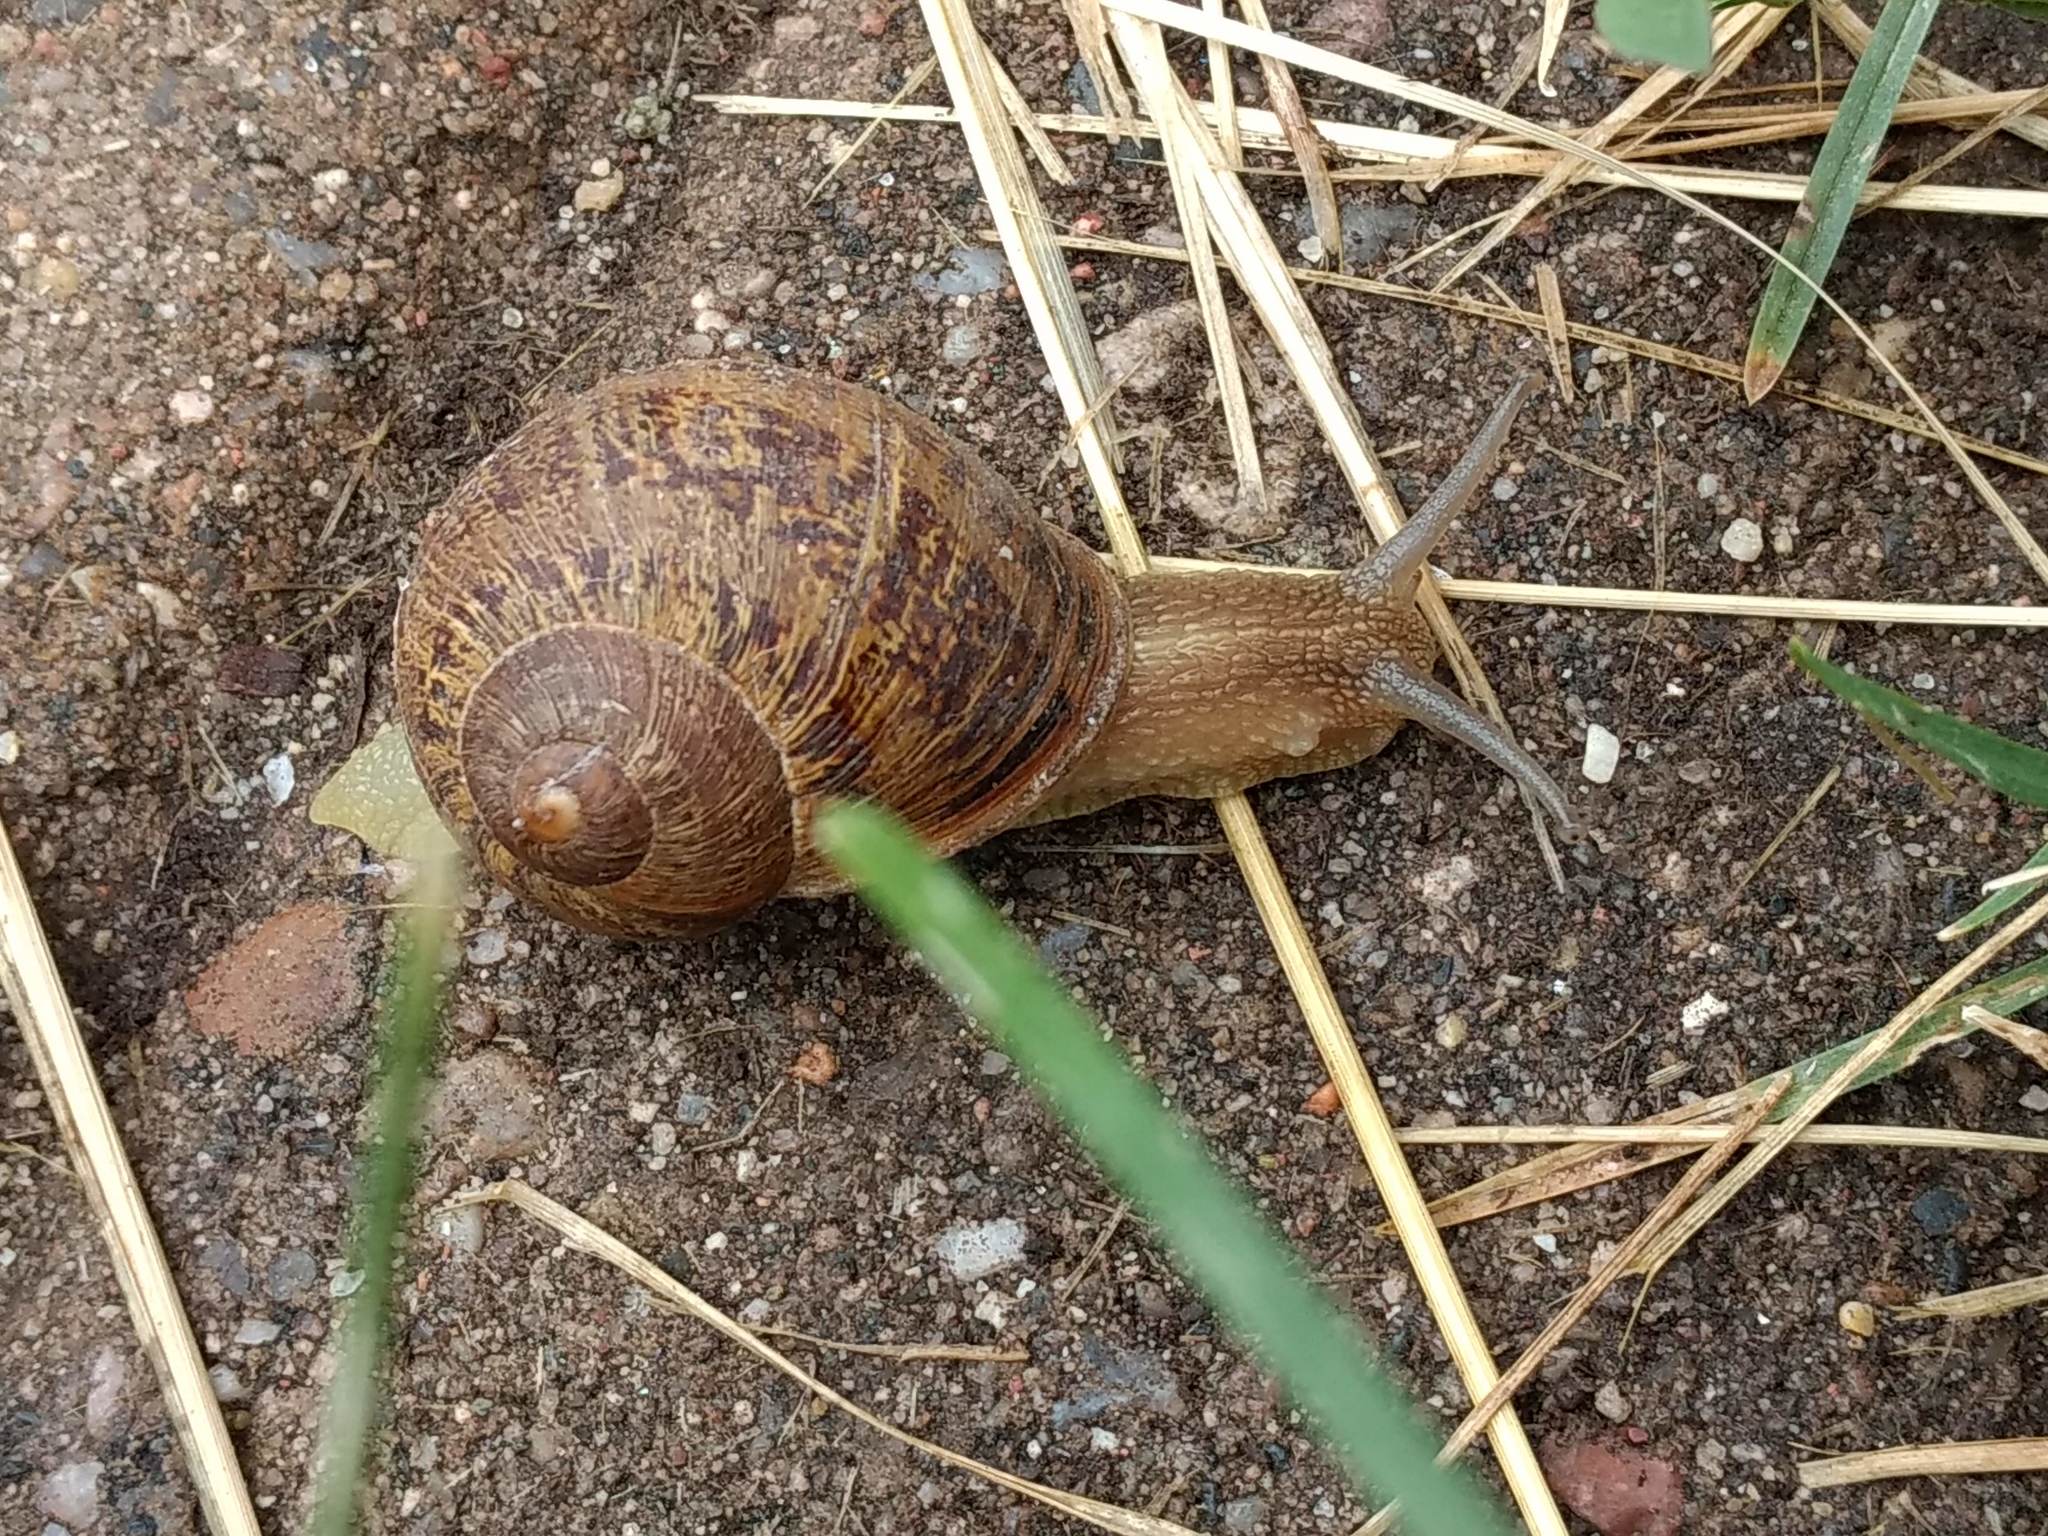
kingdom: Animalia
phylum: Mollusca
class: Gastropoda
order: Stylommatophora
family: Helicidae
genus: Cornu
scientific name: Cornu aspersum
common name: Brown garden snail
